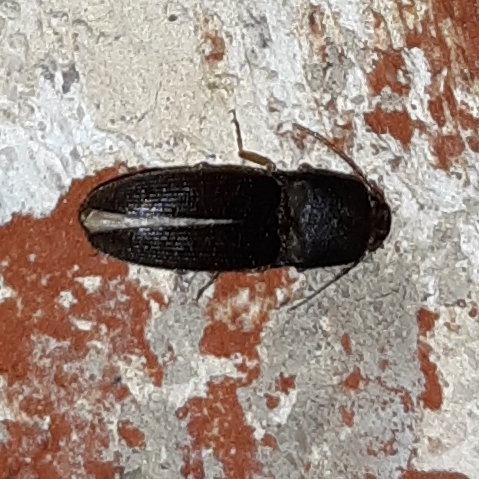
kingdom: Animalia
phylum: Arthropoda
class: Insecta
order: Coleoptera
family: Elateridae
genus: Heteroderes
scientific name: Heteroderes amplicollis
